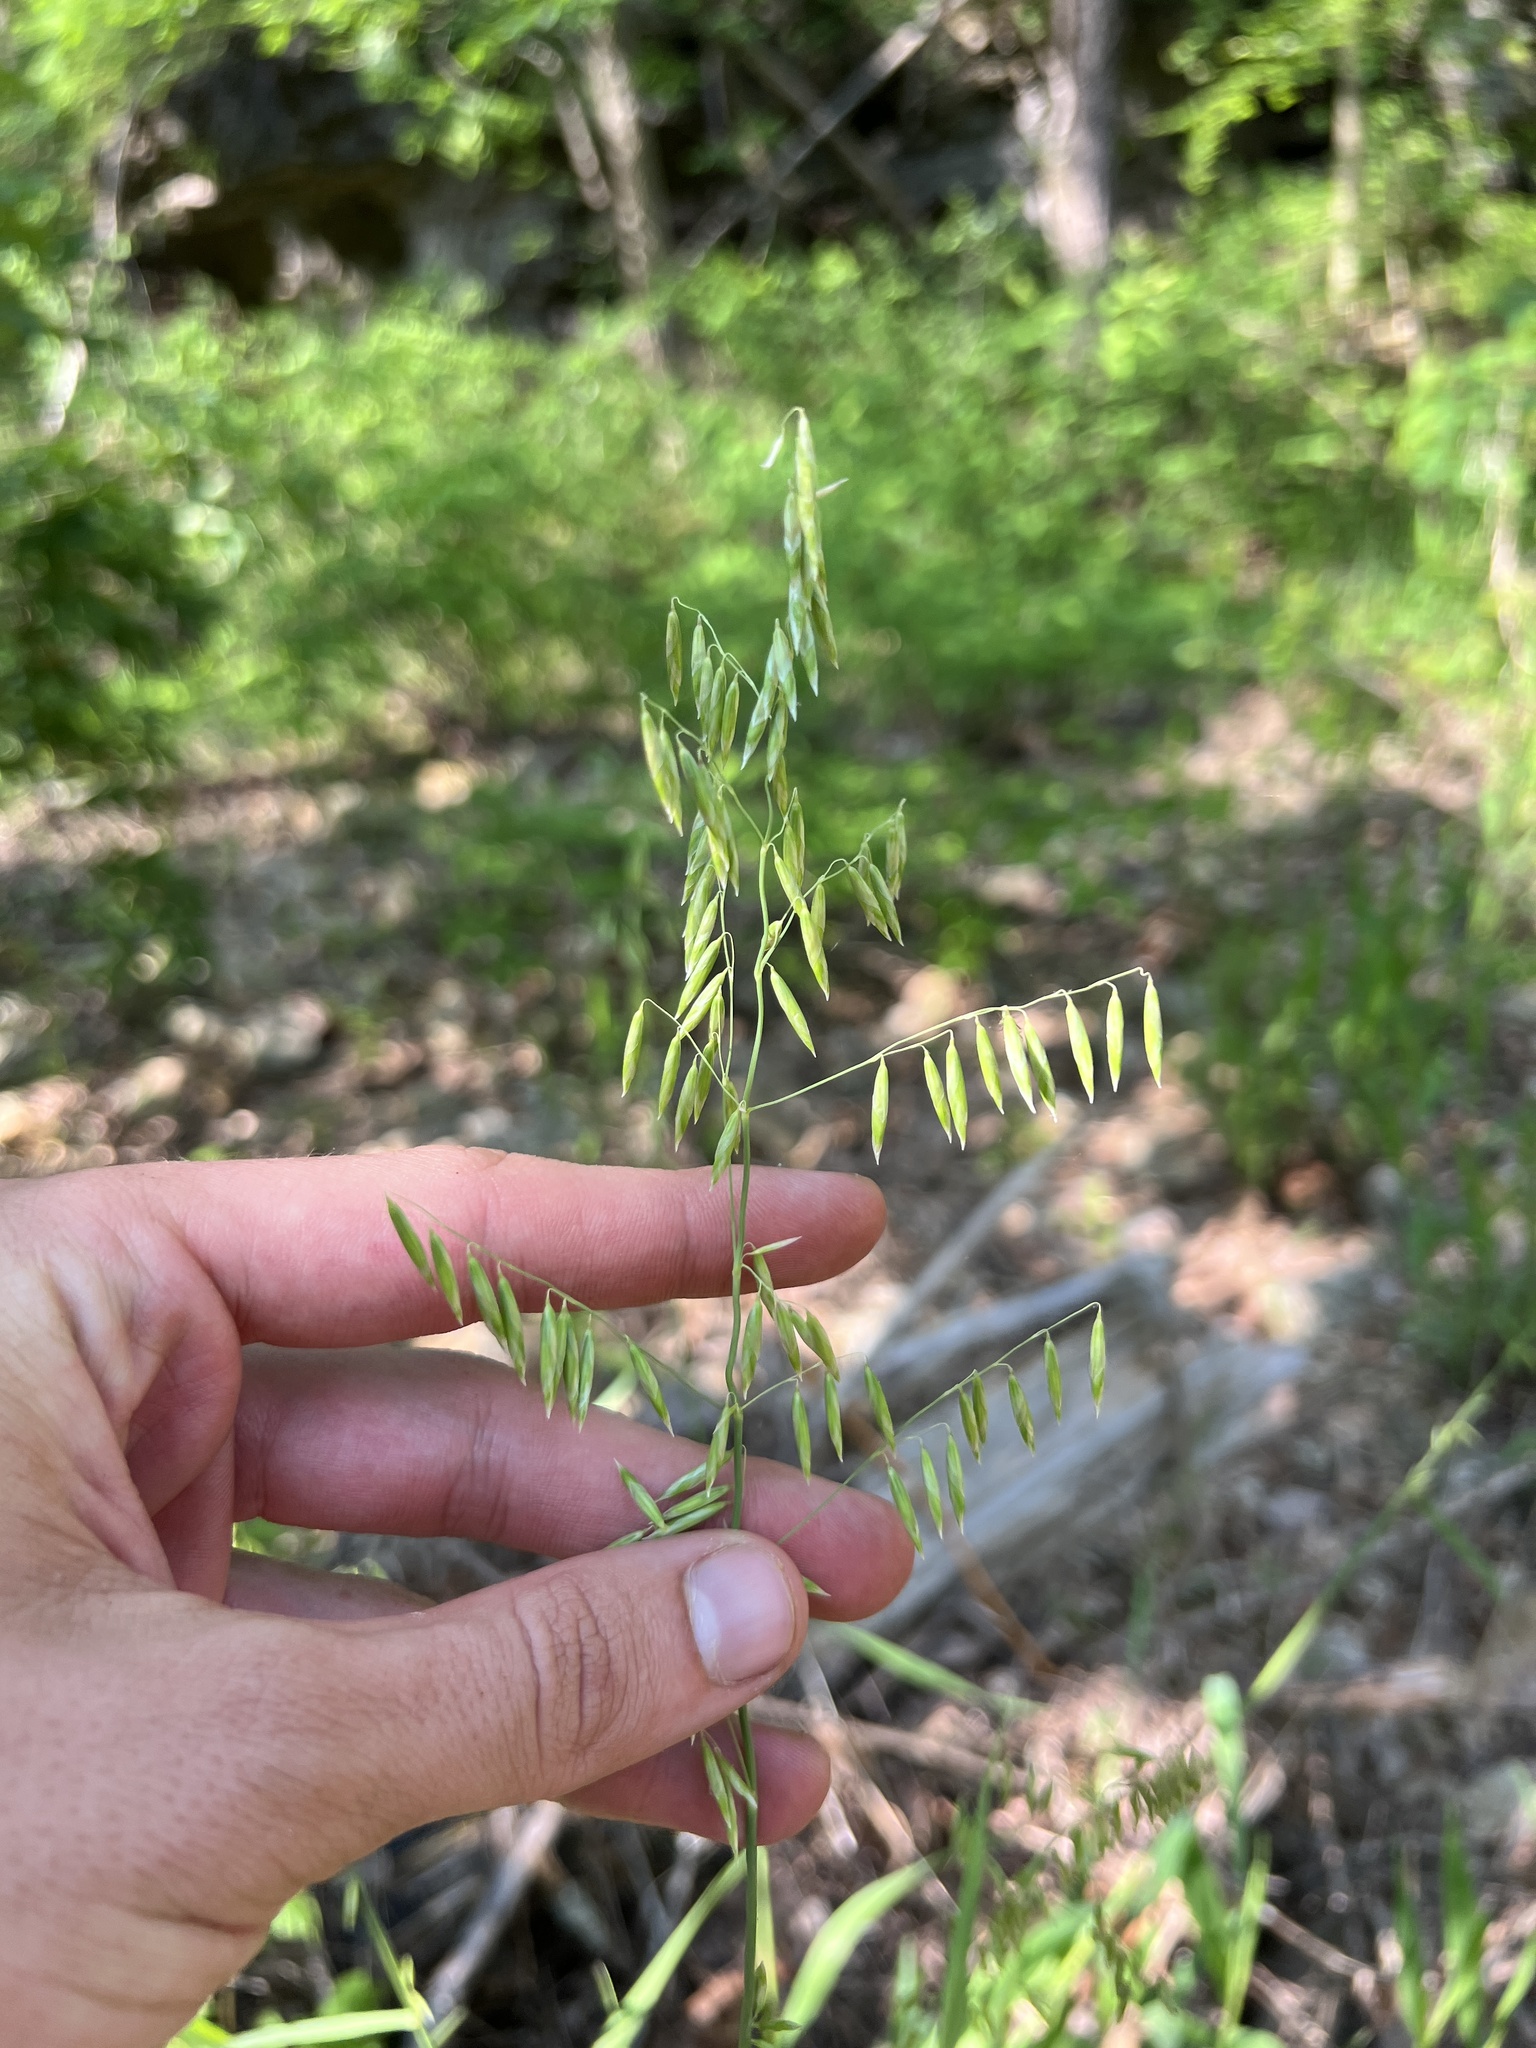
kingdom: Plantae
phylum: Tracheophyta
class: Liliopsida
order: Poales
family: Poaceae
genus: Melica
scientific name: Melica nitens
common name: Three-flower melic
